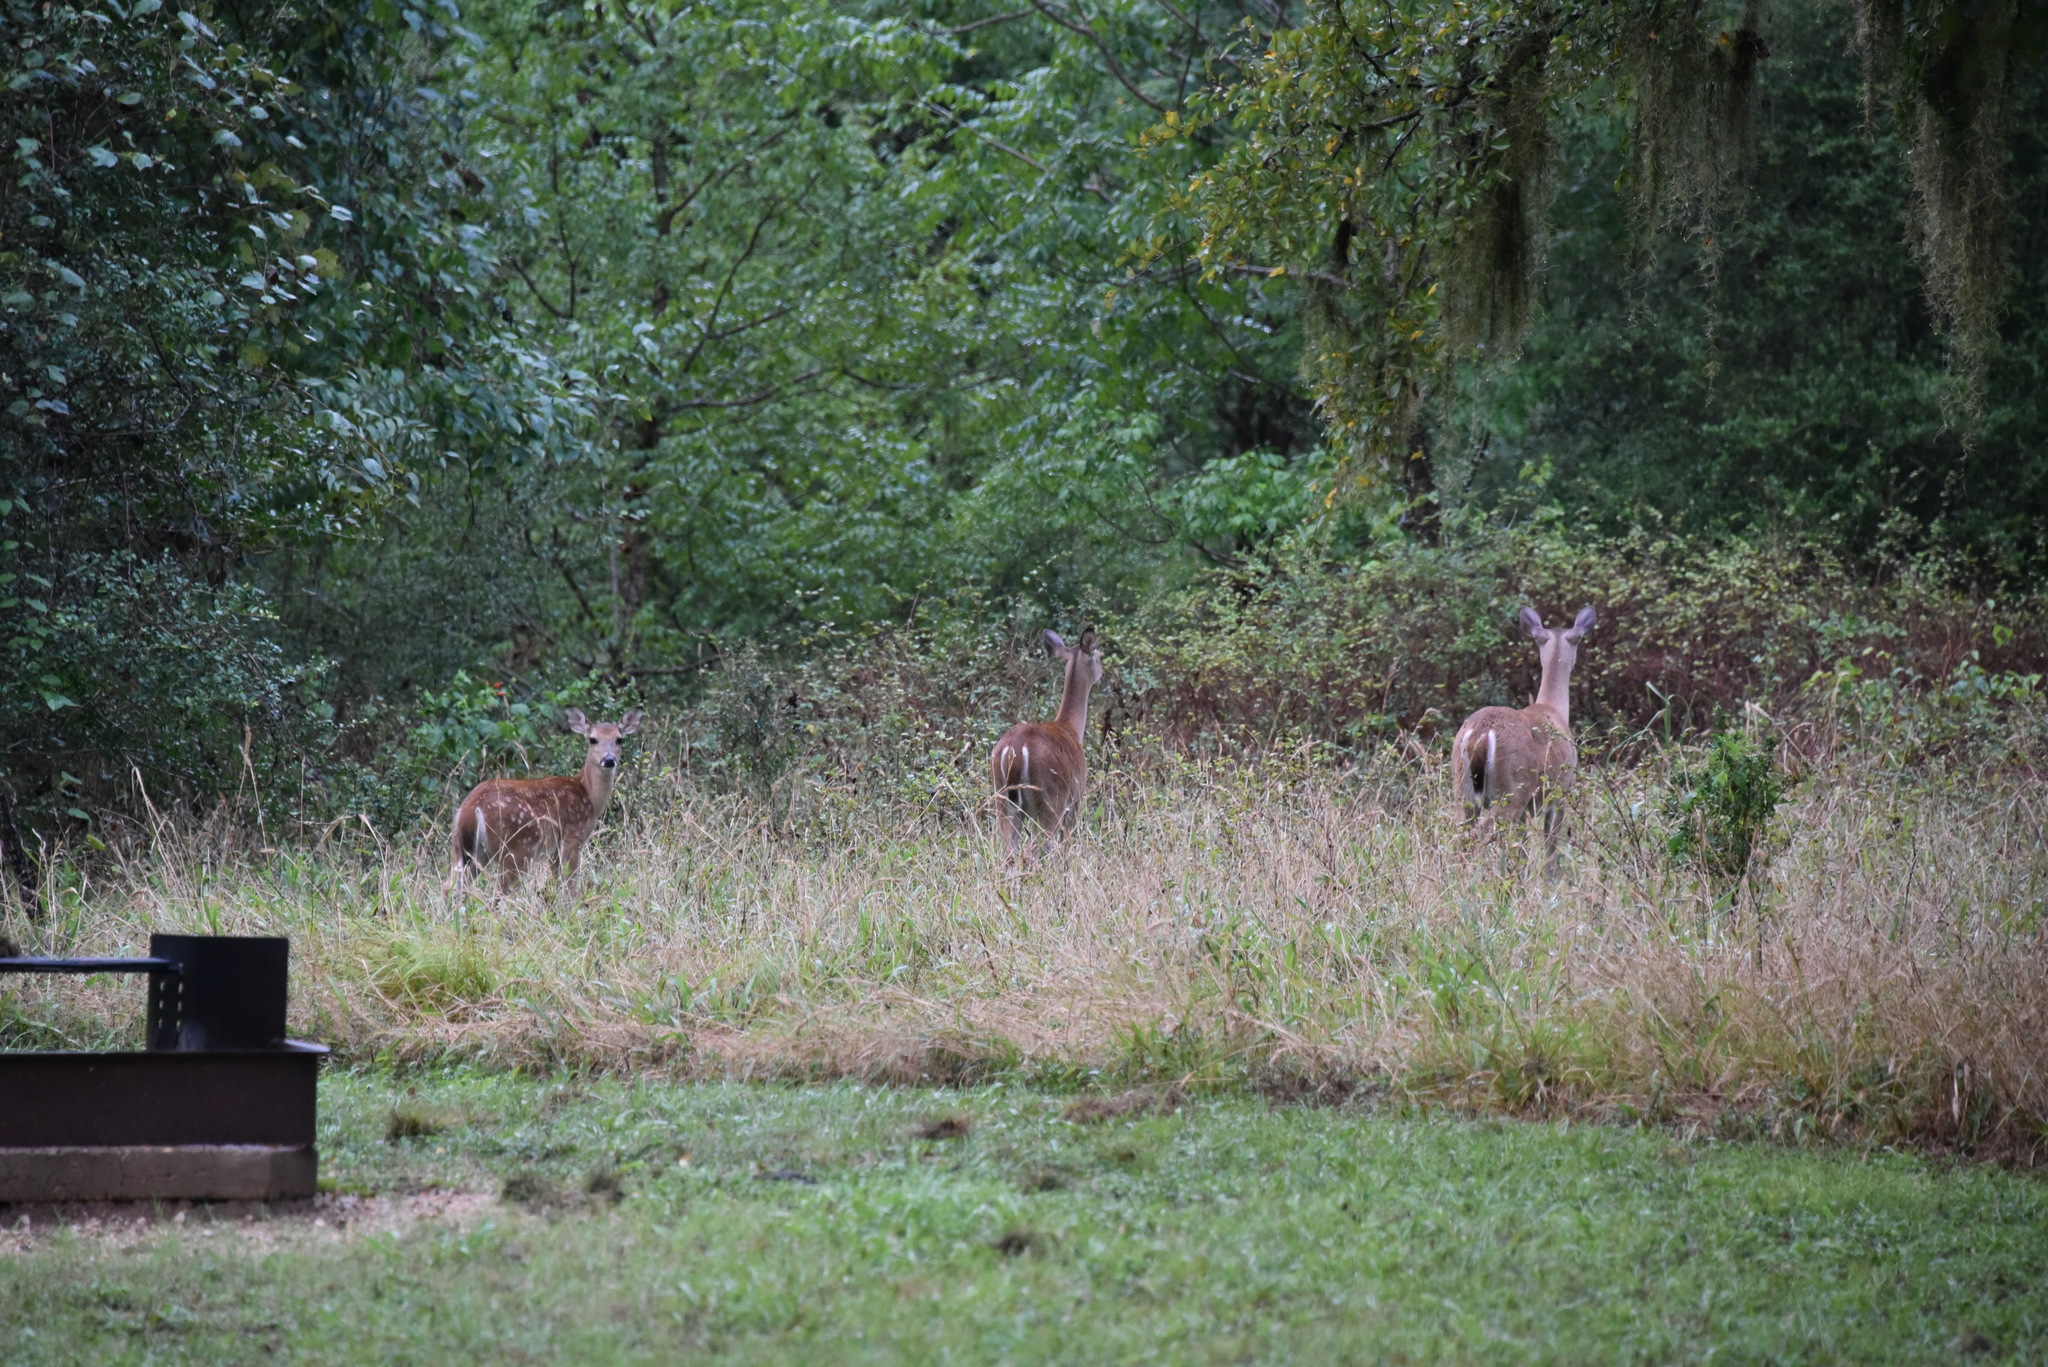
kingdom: Animalia
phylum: Chordata
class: Mammalia
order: Artiodactyla
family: Cervidae
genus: Odocoileus
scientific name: Odocoileus virginianus
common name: White-tailed deer
